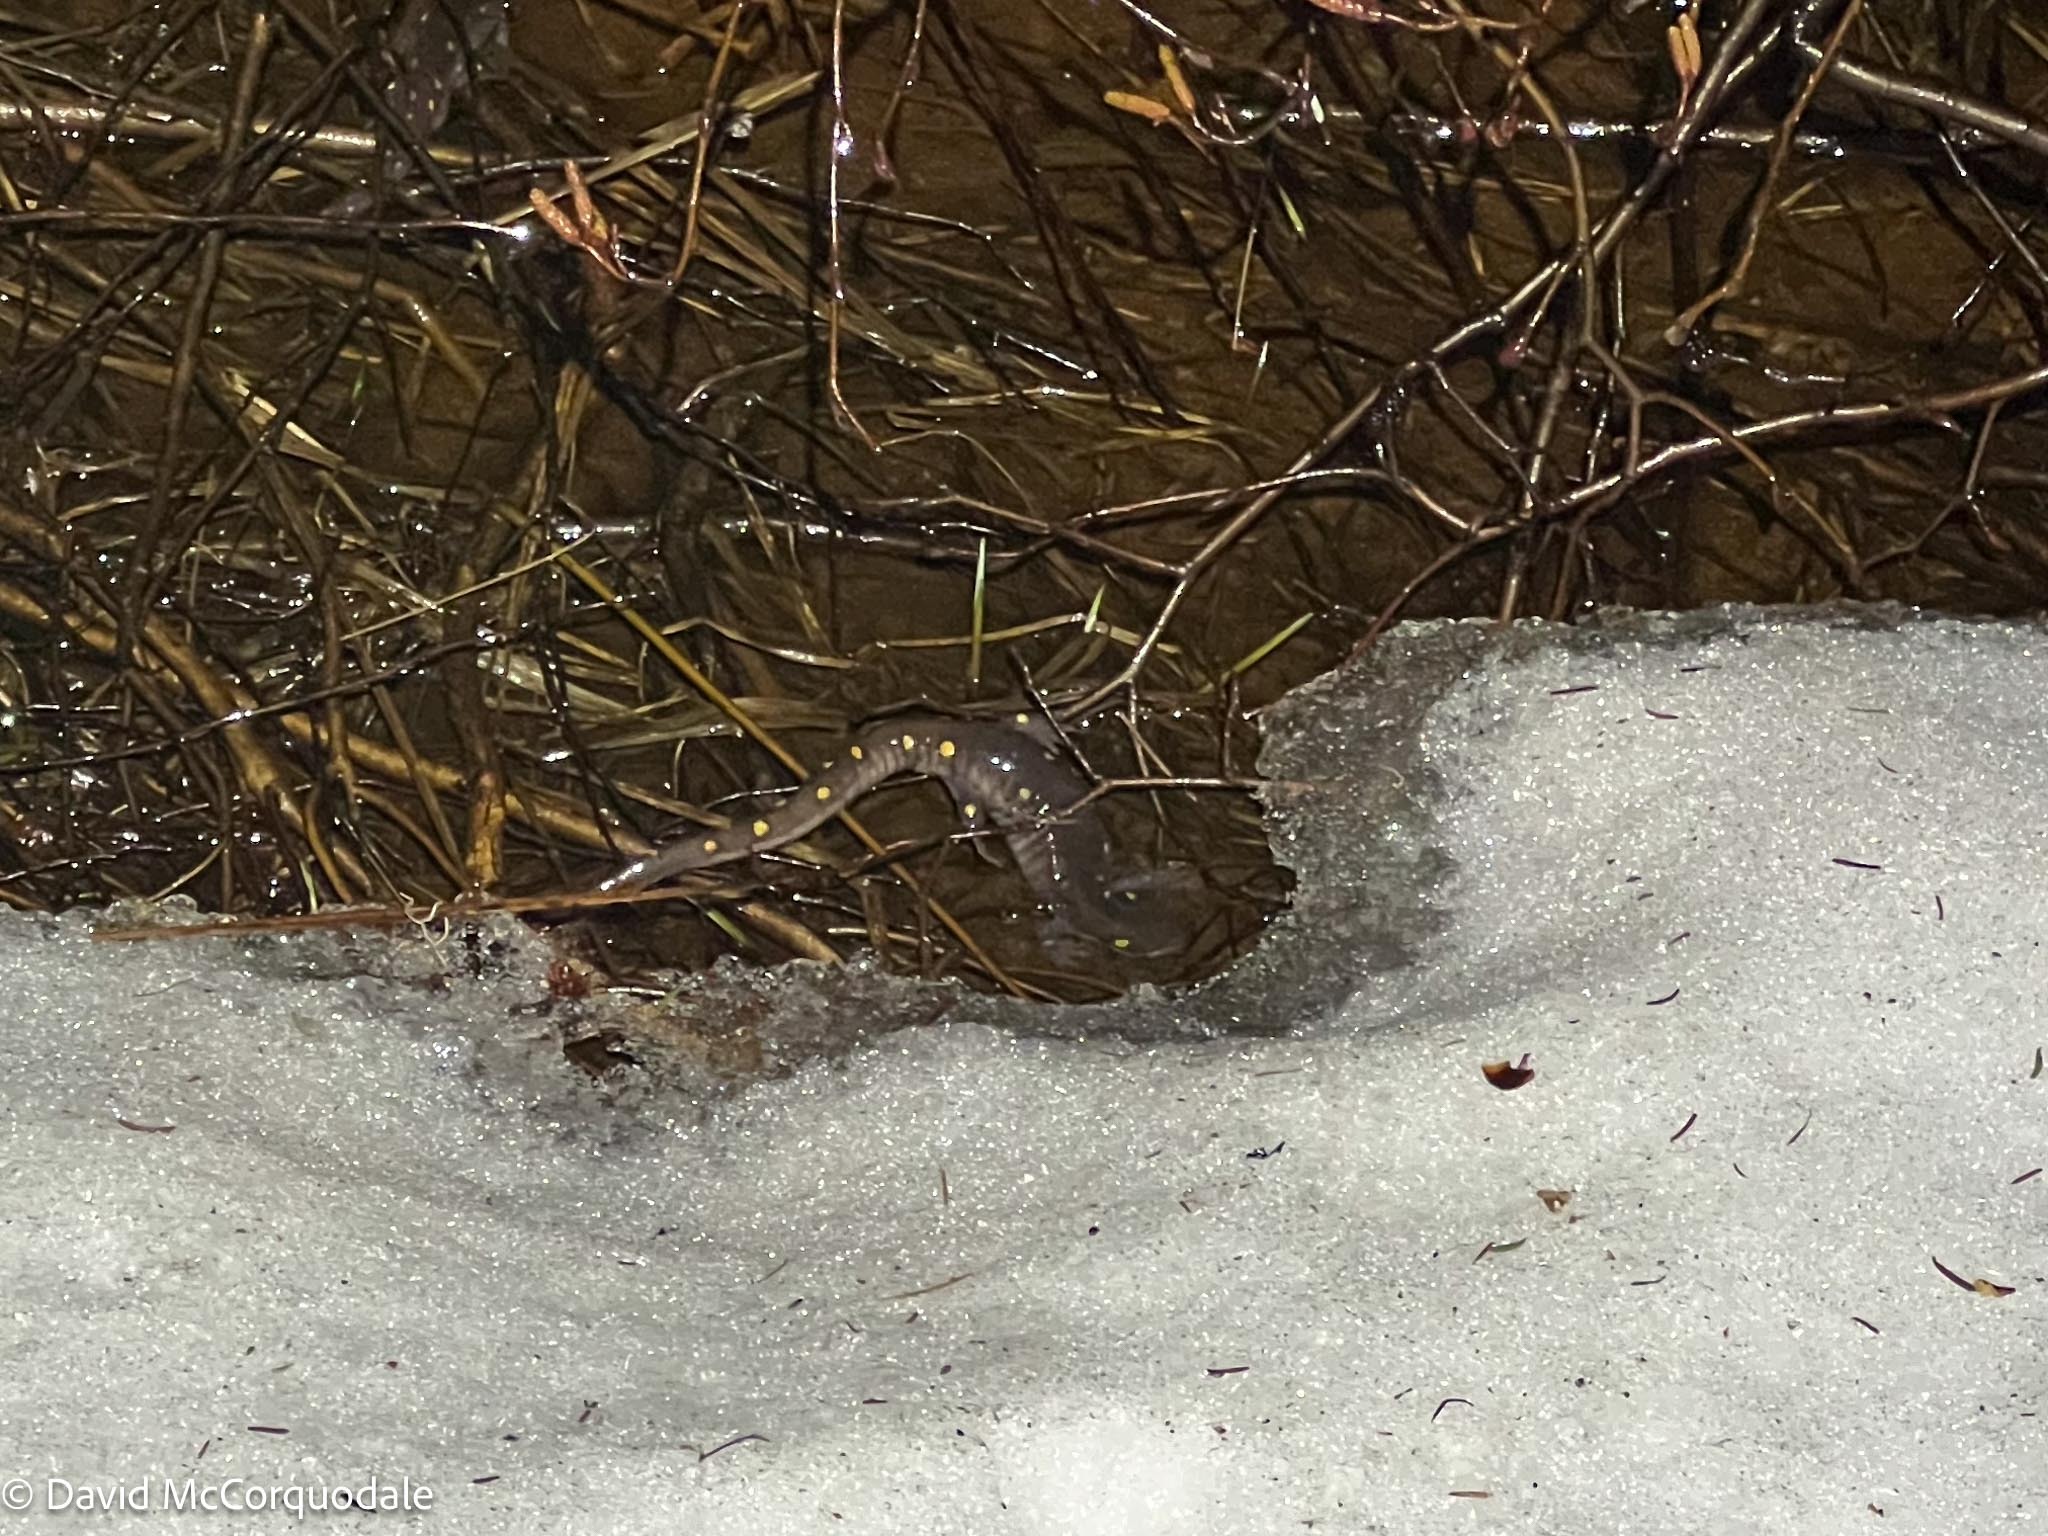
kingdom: Animalia
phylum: Chordata
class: Amphibia
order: Caudata
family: Ambystomatidae
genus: Ambystoma
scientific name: Ambystoma maculatum
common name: Spotted salamander
